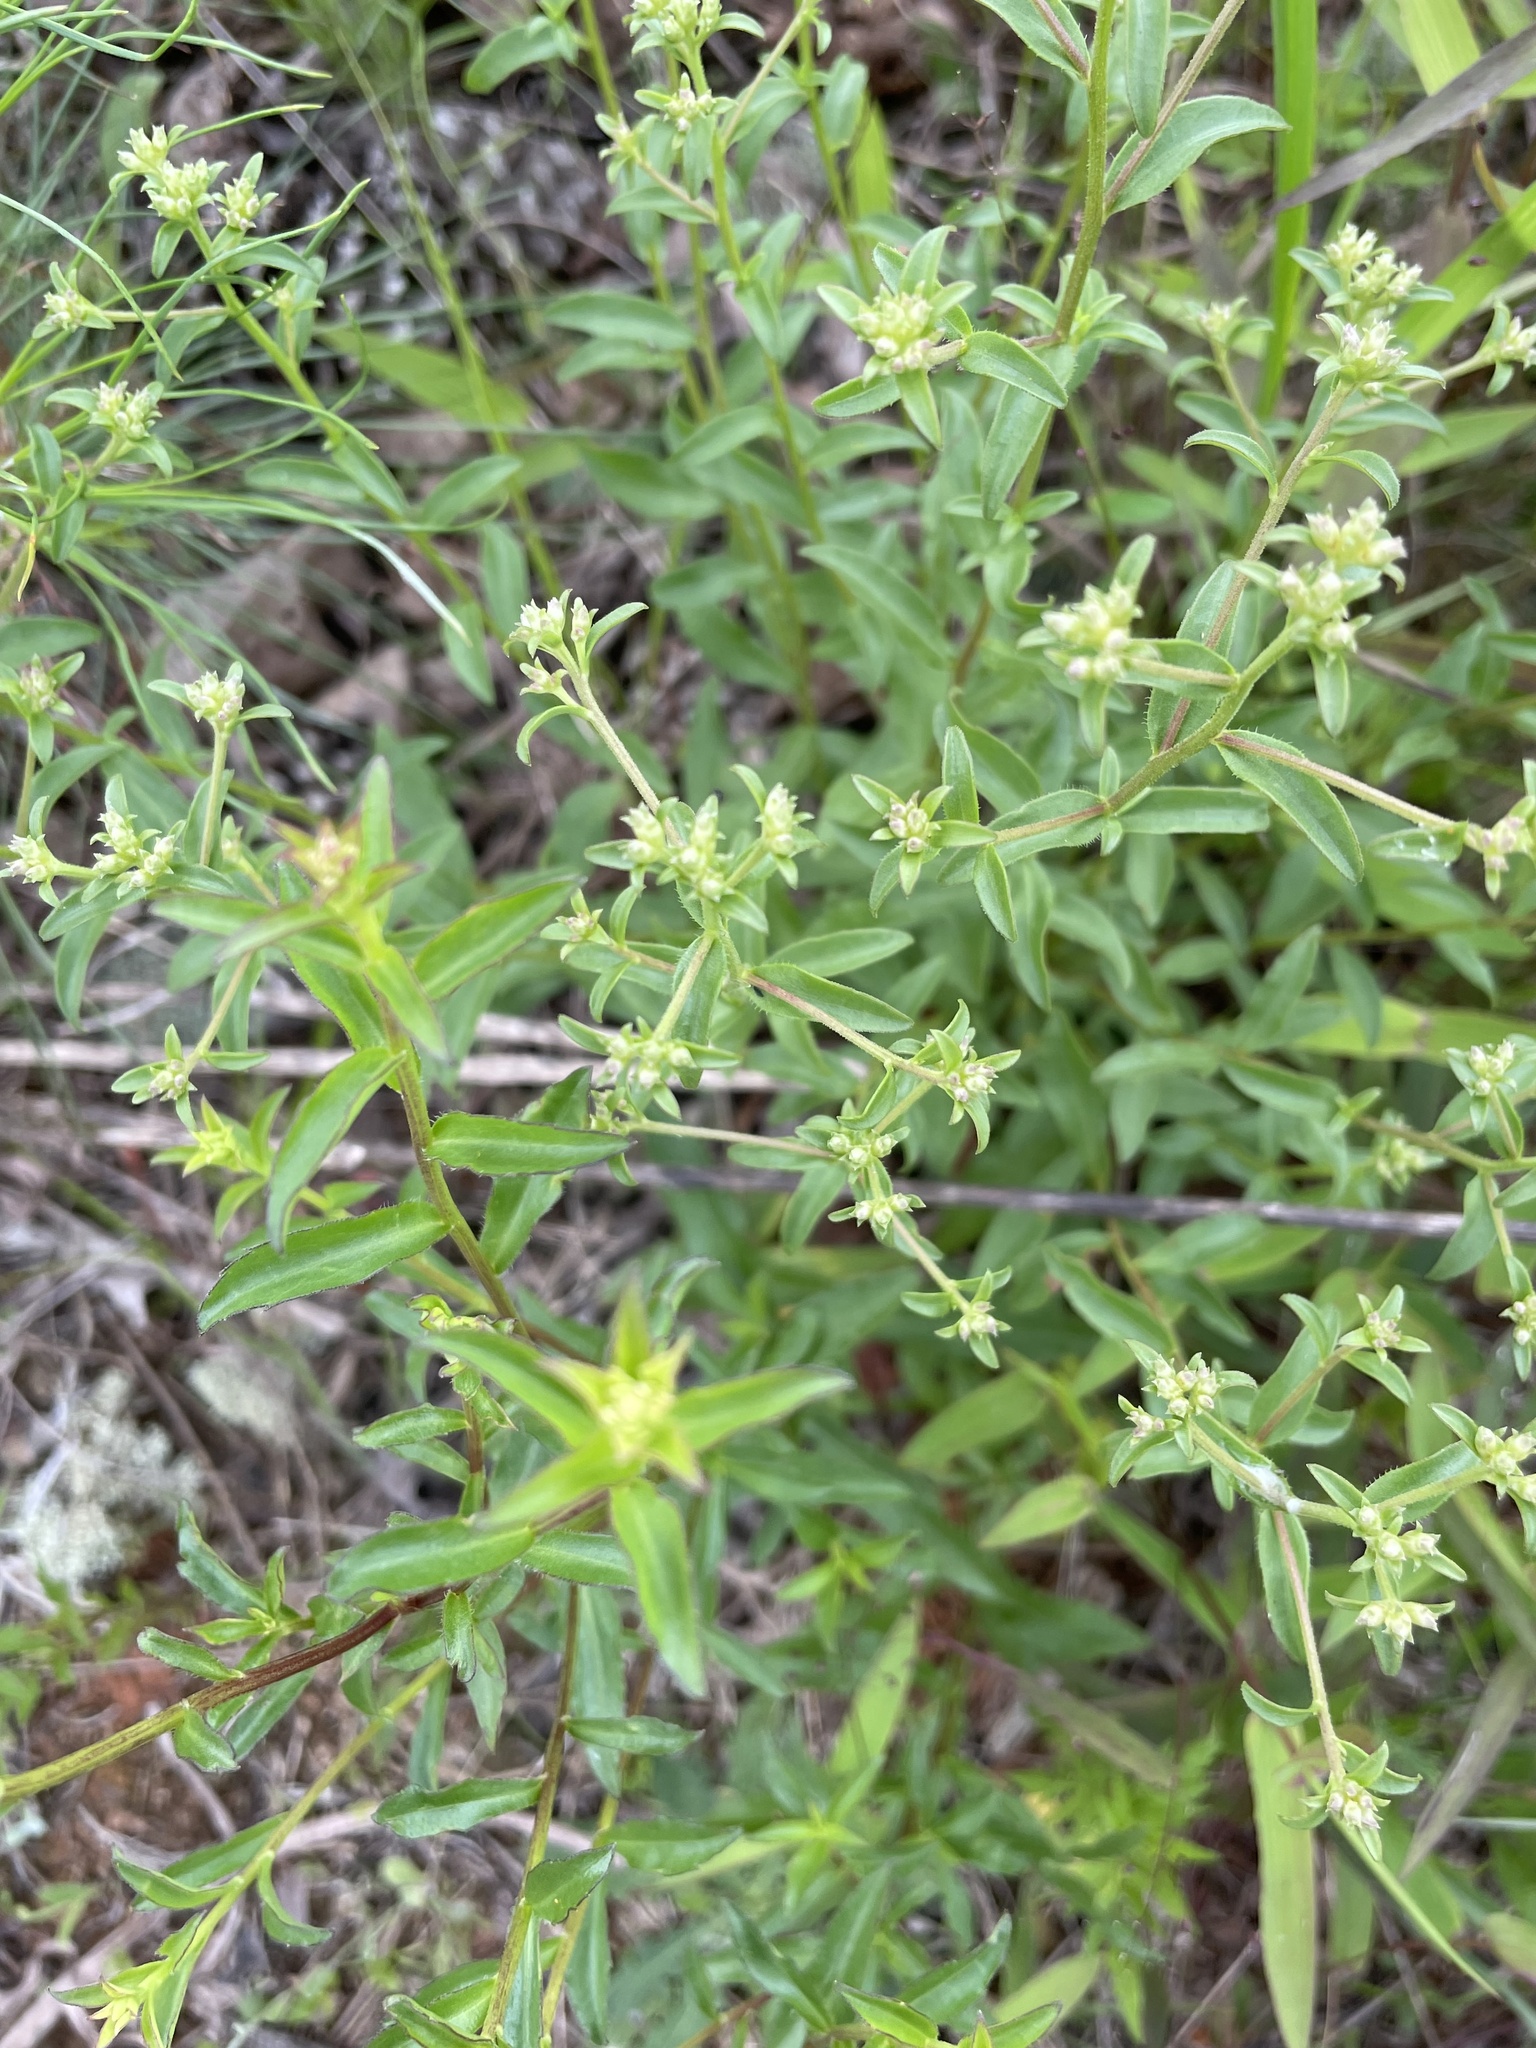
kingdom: Plantae
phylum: Tracheophyta
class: Magnoliopsida
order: Asterales
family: Asteraceae
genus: Sericocarpus
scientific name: Sericocarpus asteroides
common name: Toothed white-top aster
